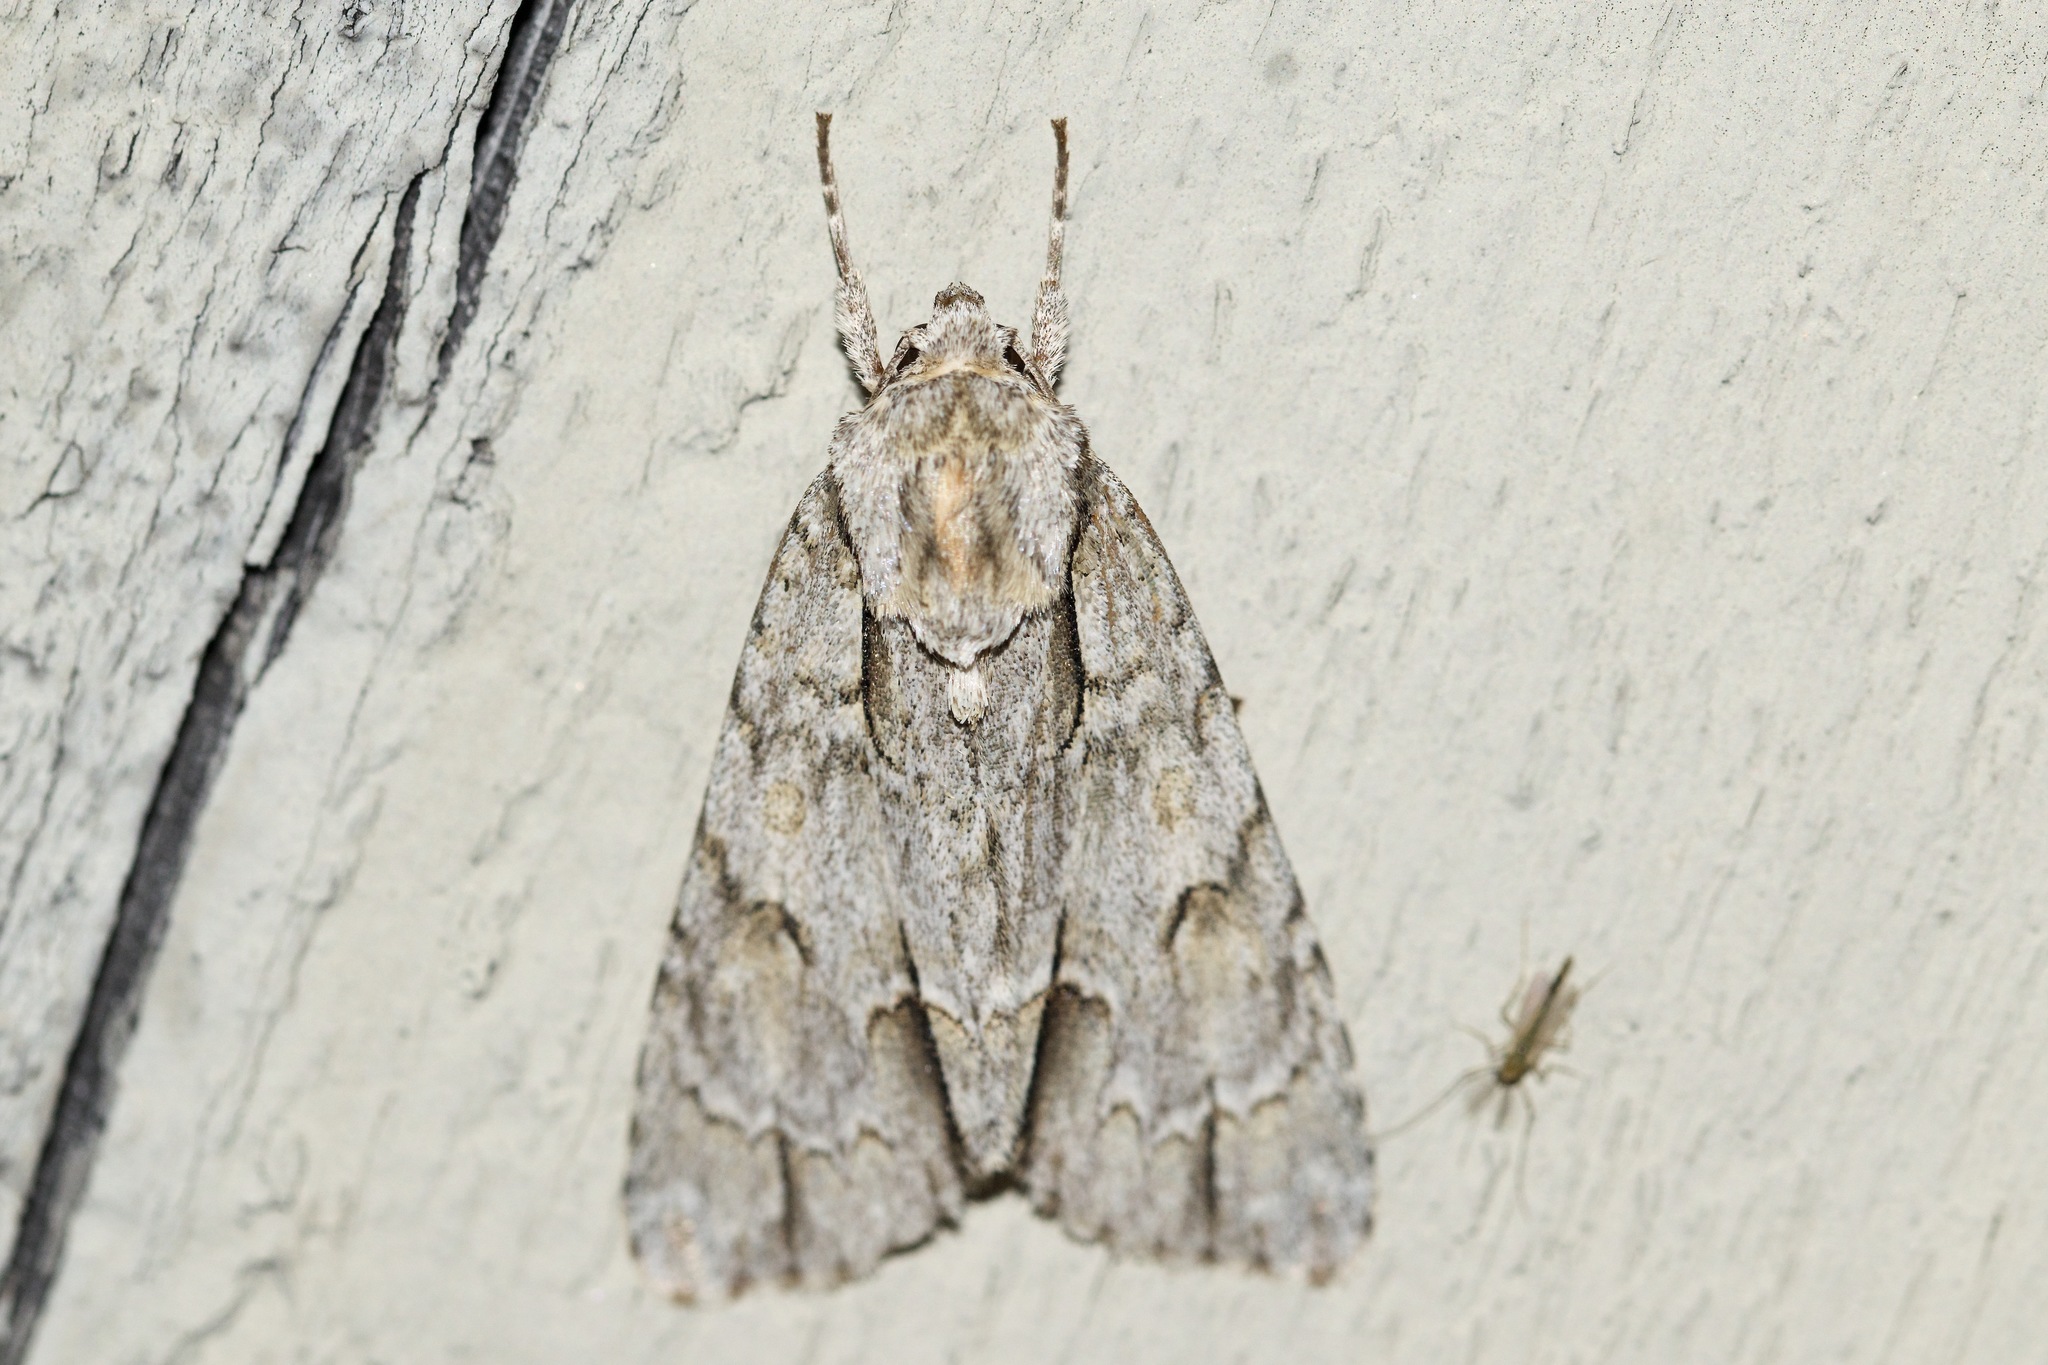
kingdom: Animalia
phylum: Arthropoda
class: Insecta
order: Lepidoptera
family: Noctuidae
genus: Acronicta
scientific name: Acronicta morula
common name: Ochre dagger
